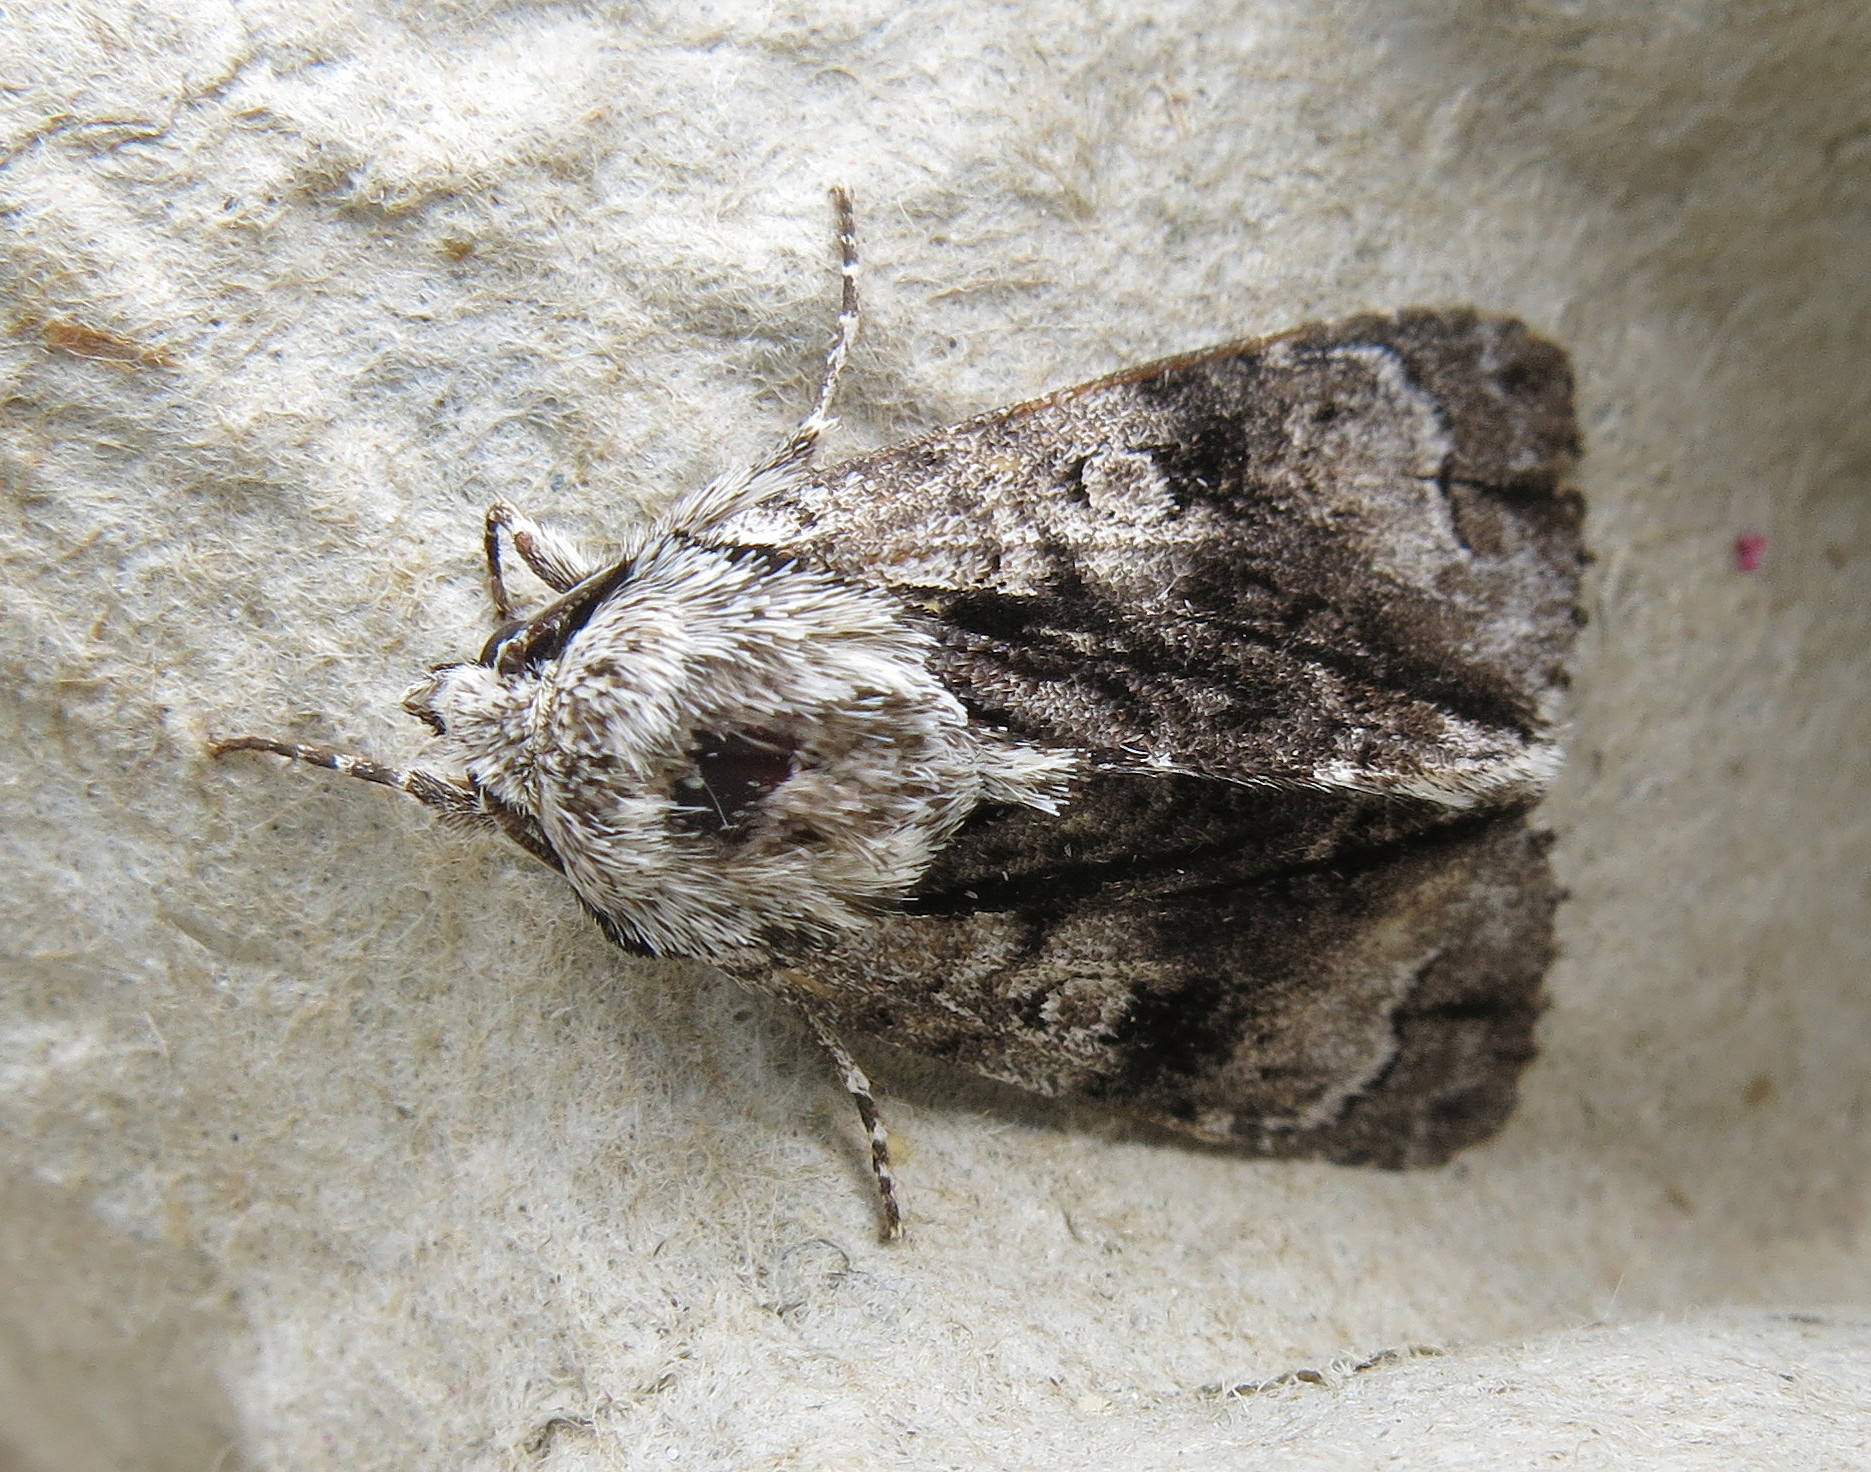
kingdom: Animalia
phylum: Arthropoda
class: Insecta
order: Lepidoptera
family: Noctuidae
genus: Acronicta
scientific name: Acronicta alni
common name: Alder moth
